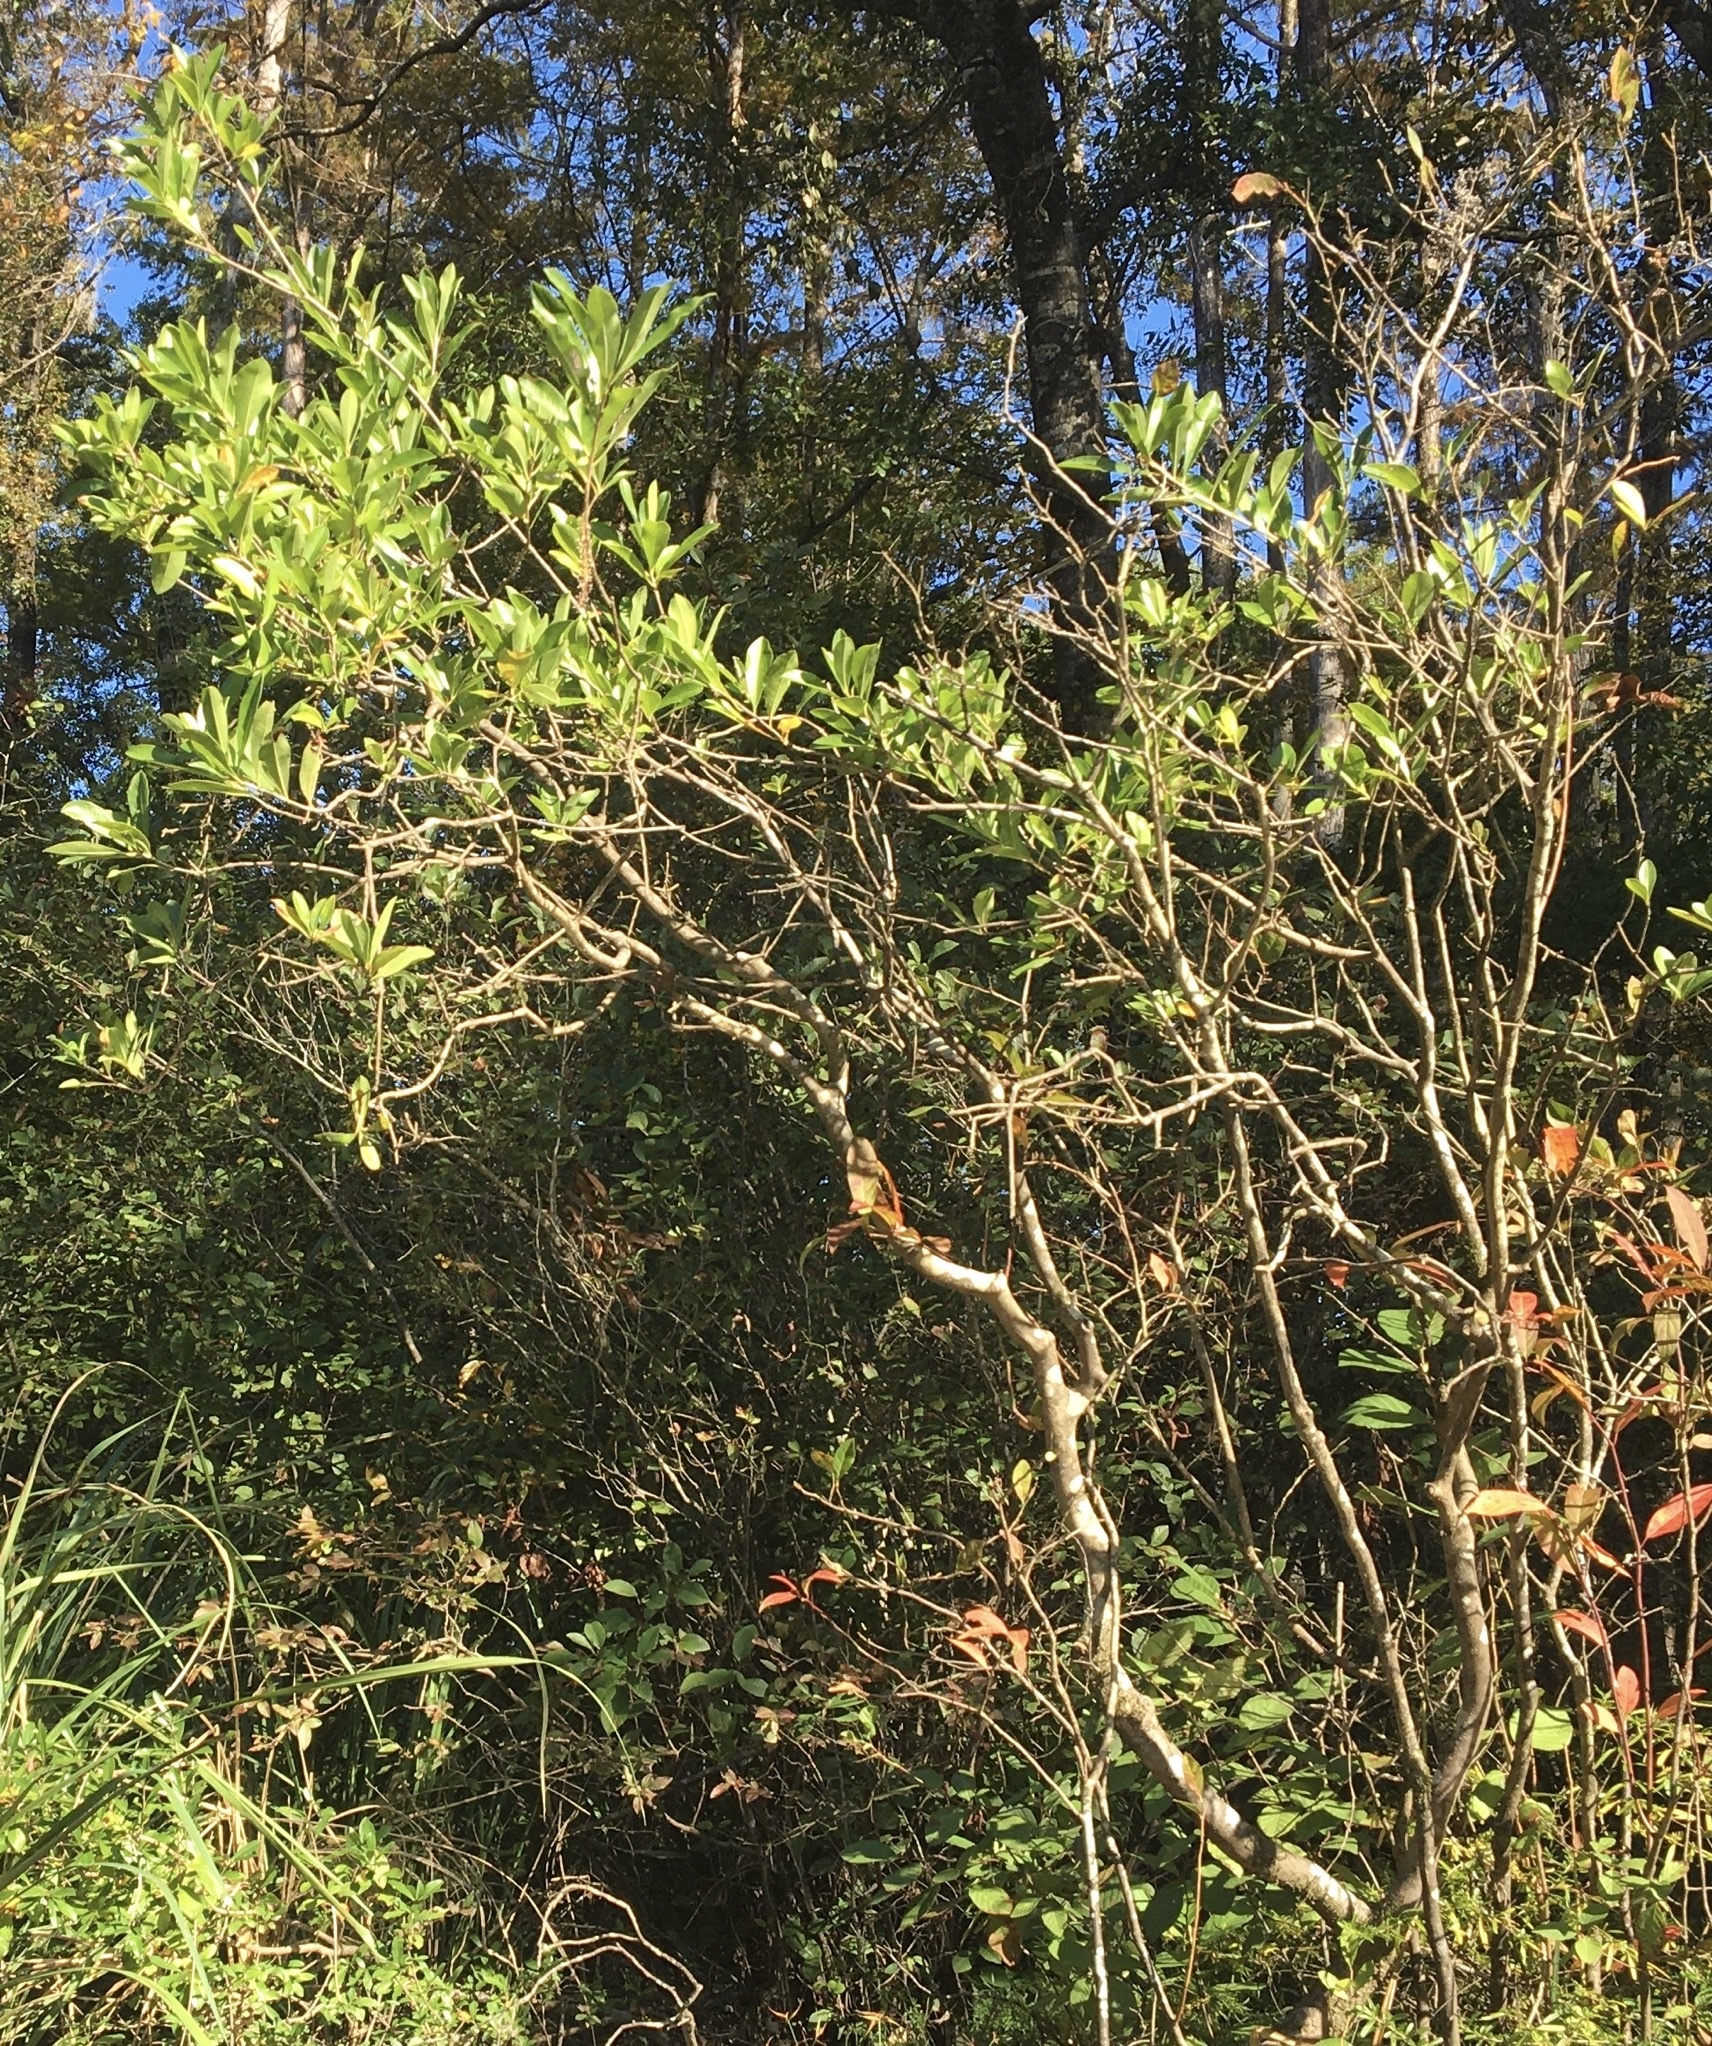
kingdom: Plantae
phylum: Tracheophyta
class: Magnoliopsida
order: Ericales
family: Cyrillaceae
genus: Cyrilla
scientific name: Cyrilla racemiflora
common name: Black titi
